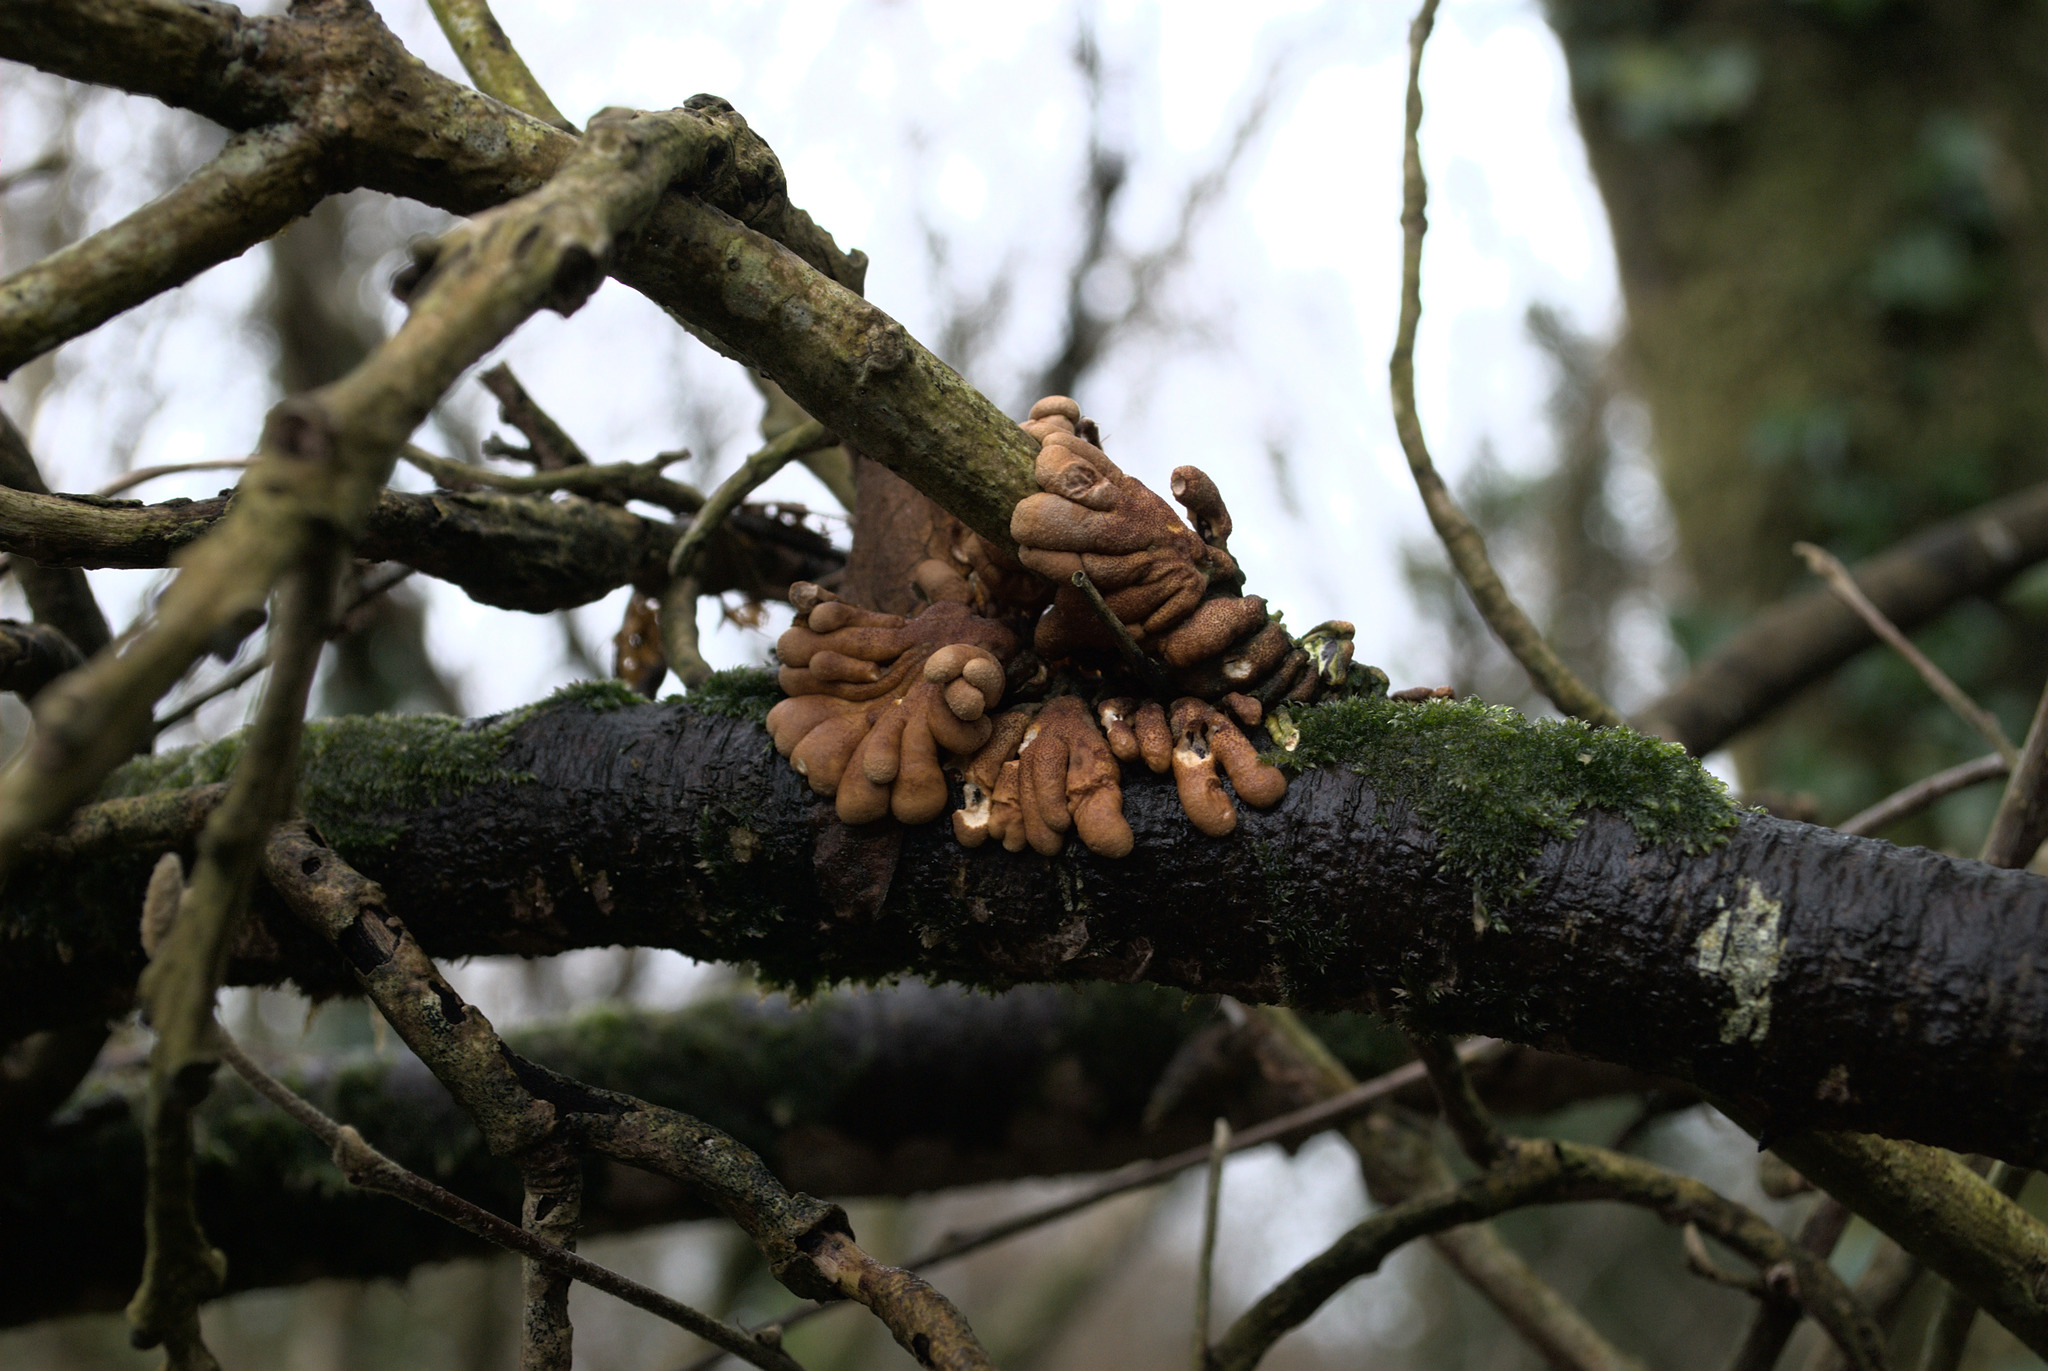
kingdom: Fungi
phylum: Ascomycota
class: Sordariomycetes
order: Hypocreales
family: Hypocreaceae
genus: Hypocreopsis
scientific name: Hypocreopsis rhododendri
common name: Hazel gloves
